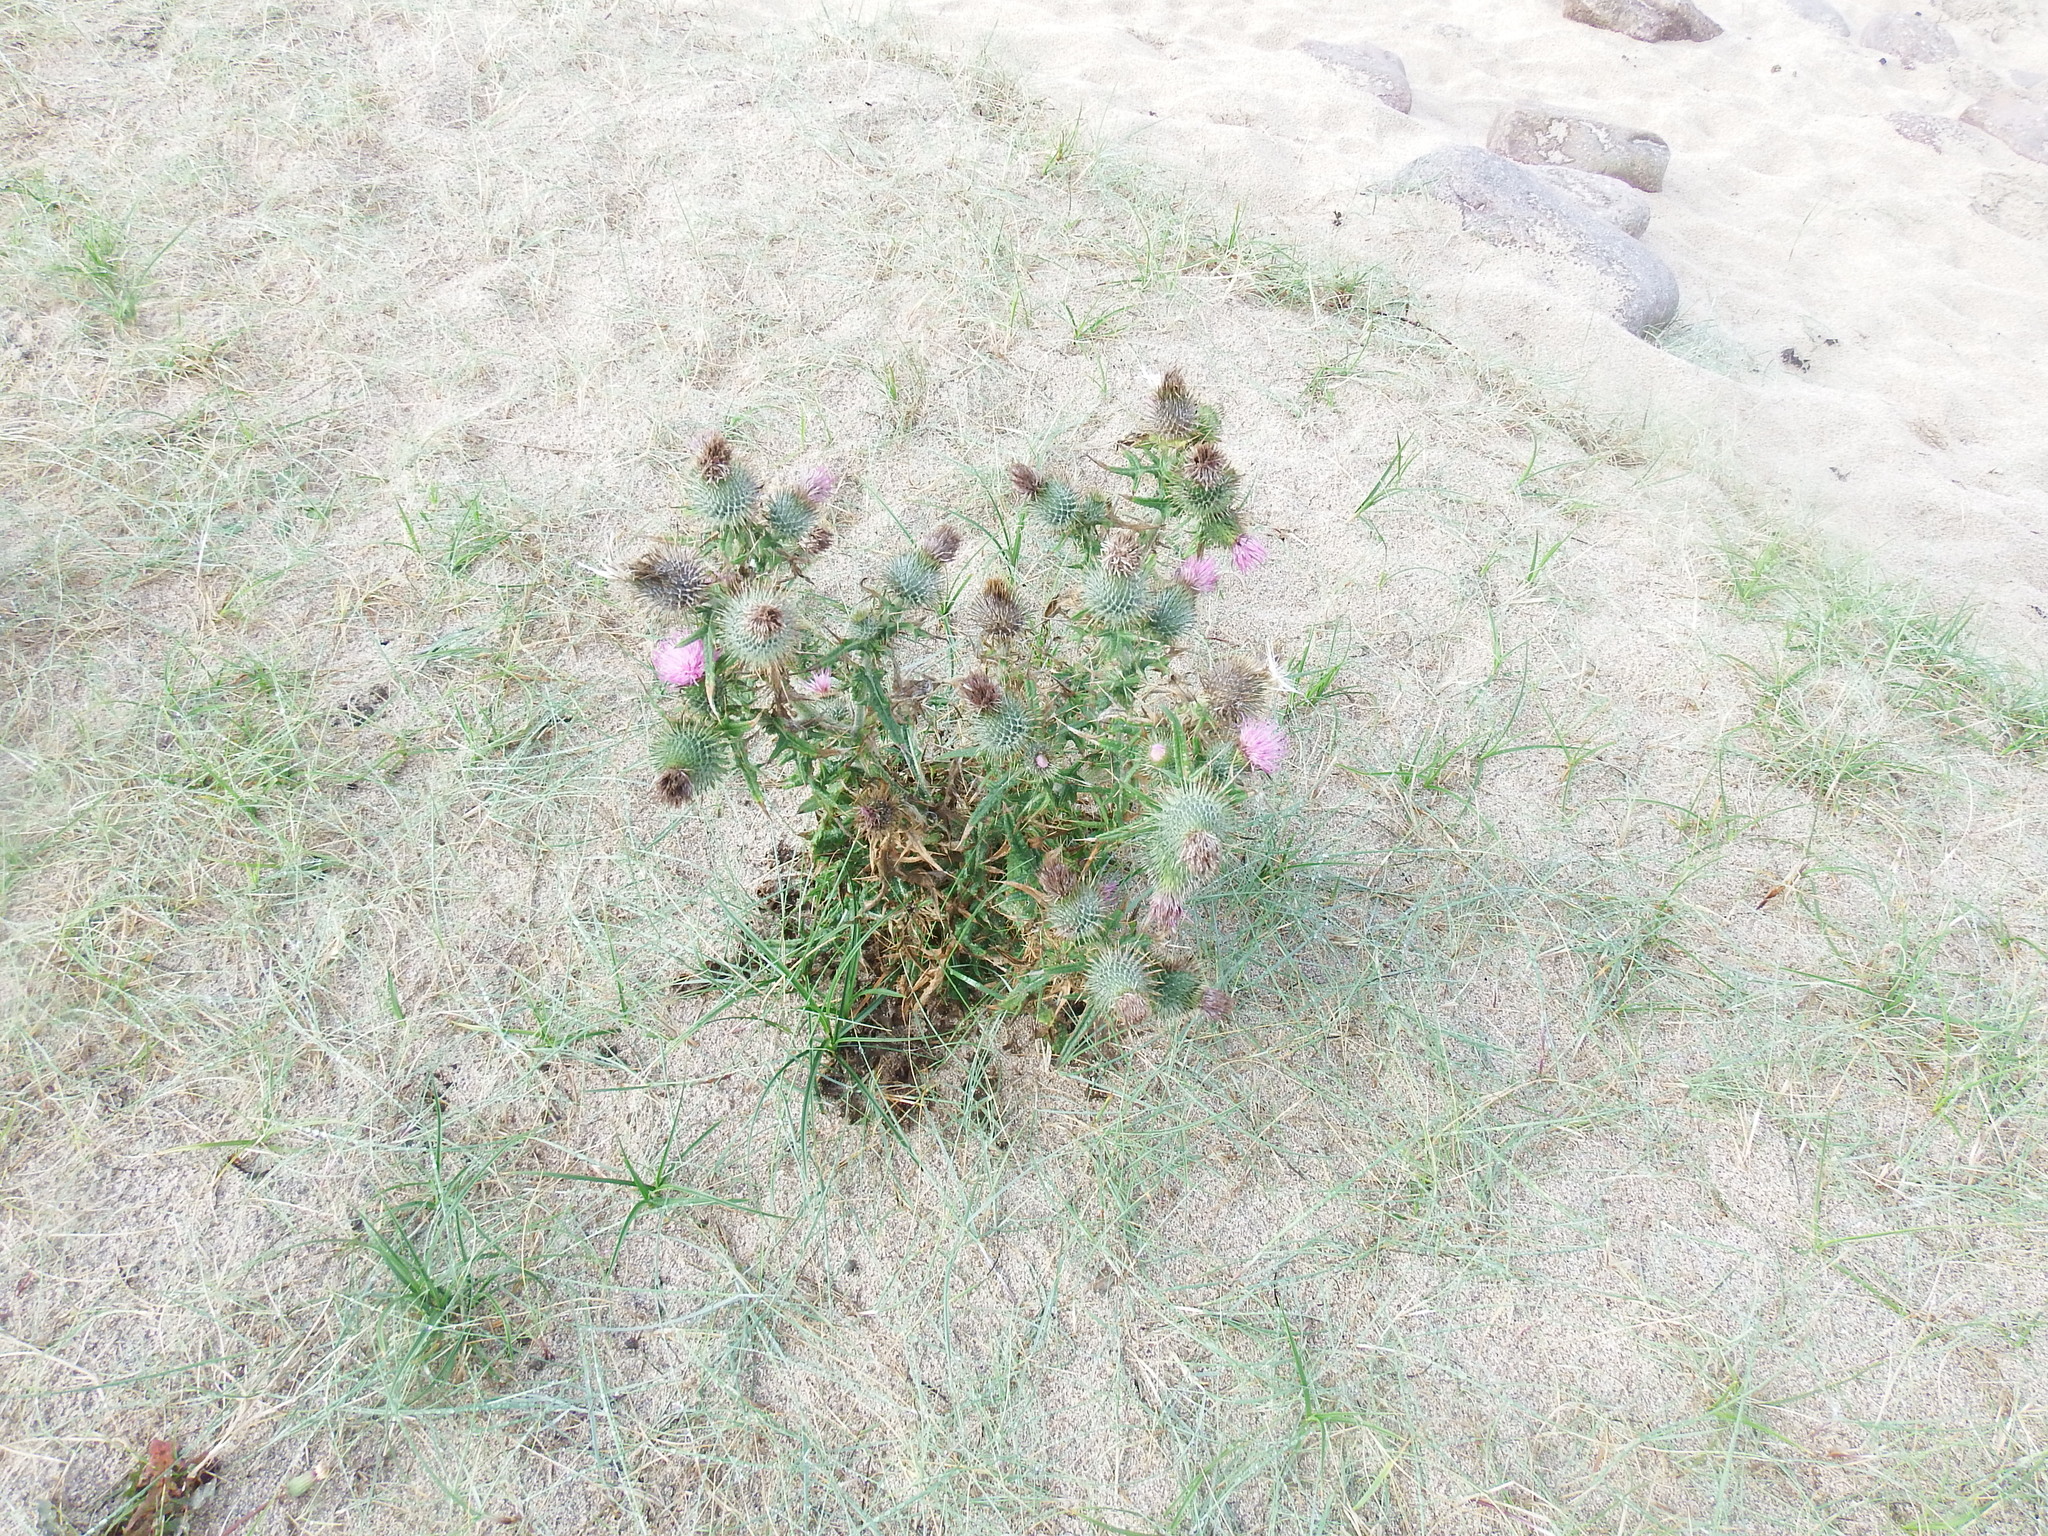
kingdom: Plantae
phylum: Tracheophyta
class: Magnoliopsida
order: Asterales
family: Asteraceae
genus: Cirsium
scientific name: Cirsium vulgare
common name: Bull thistle
